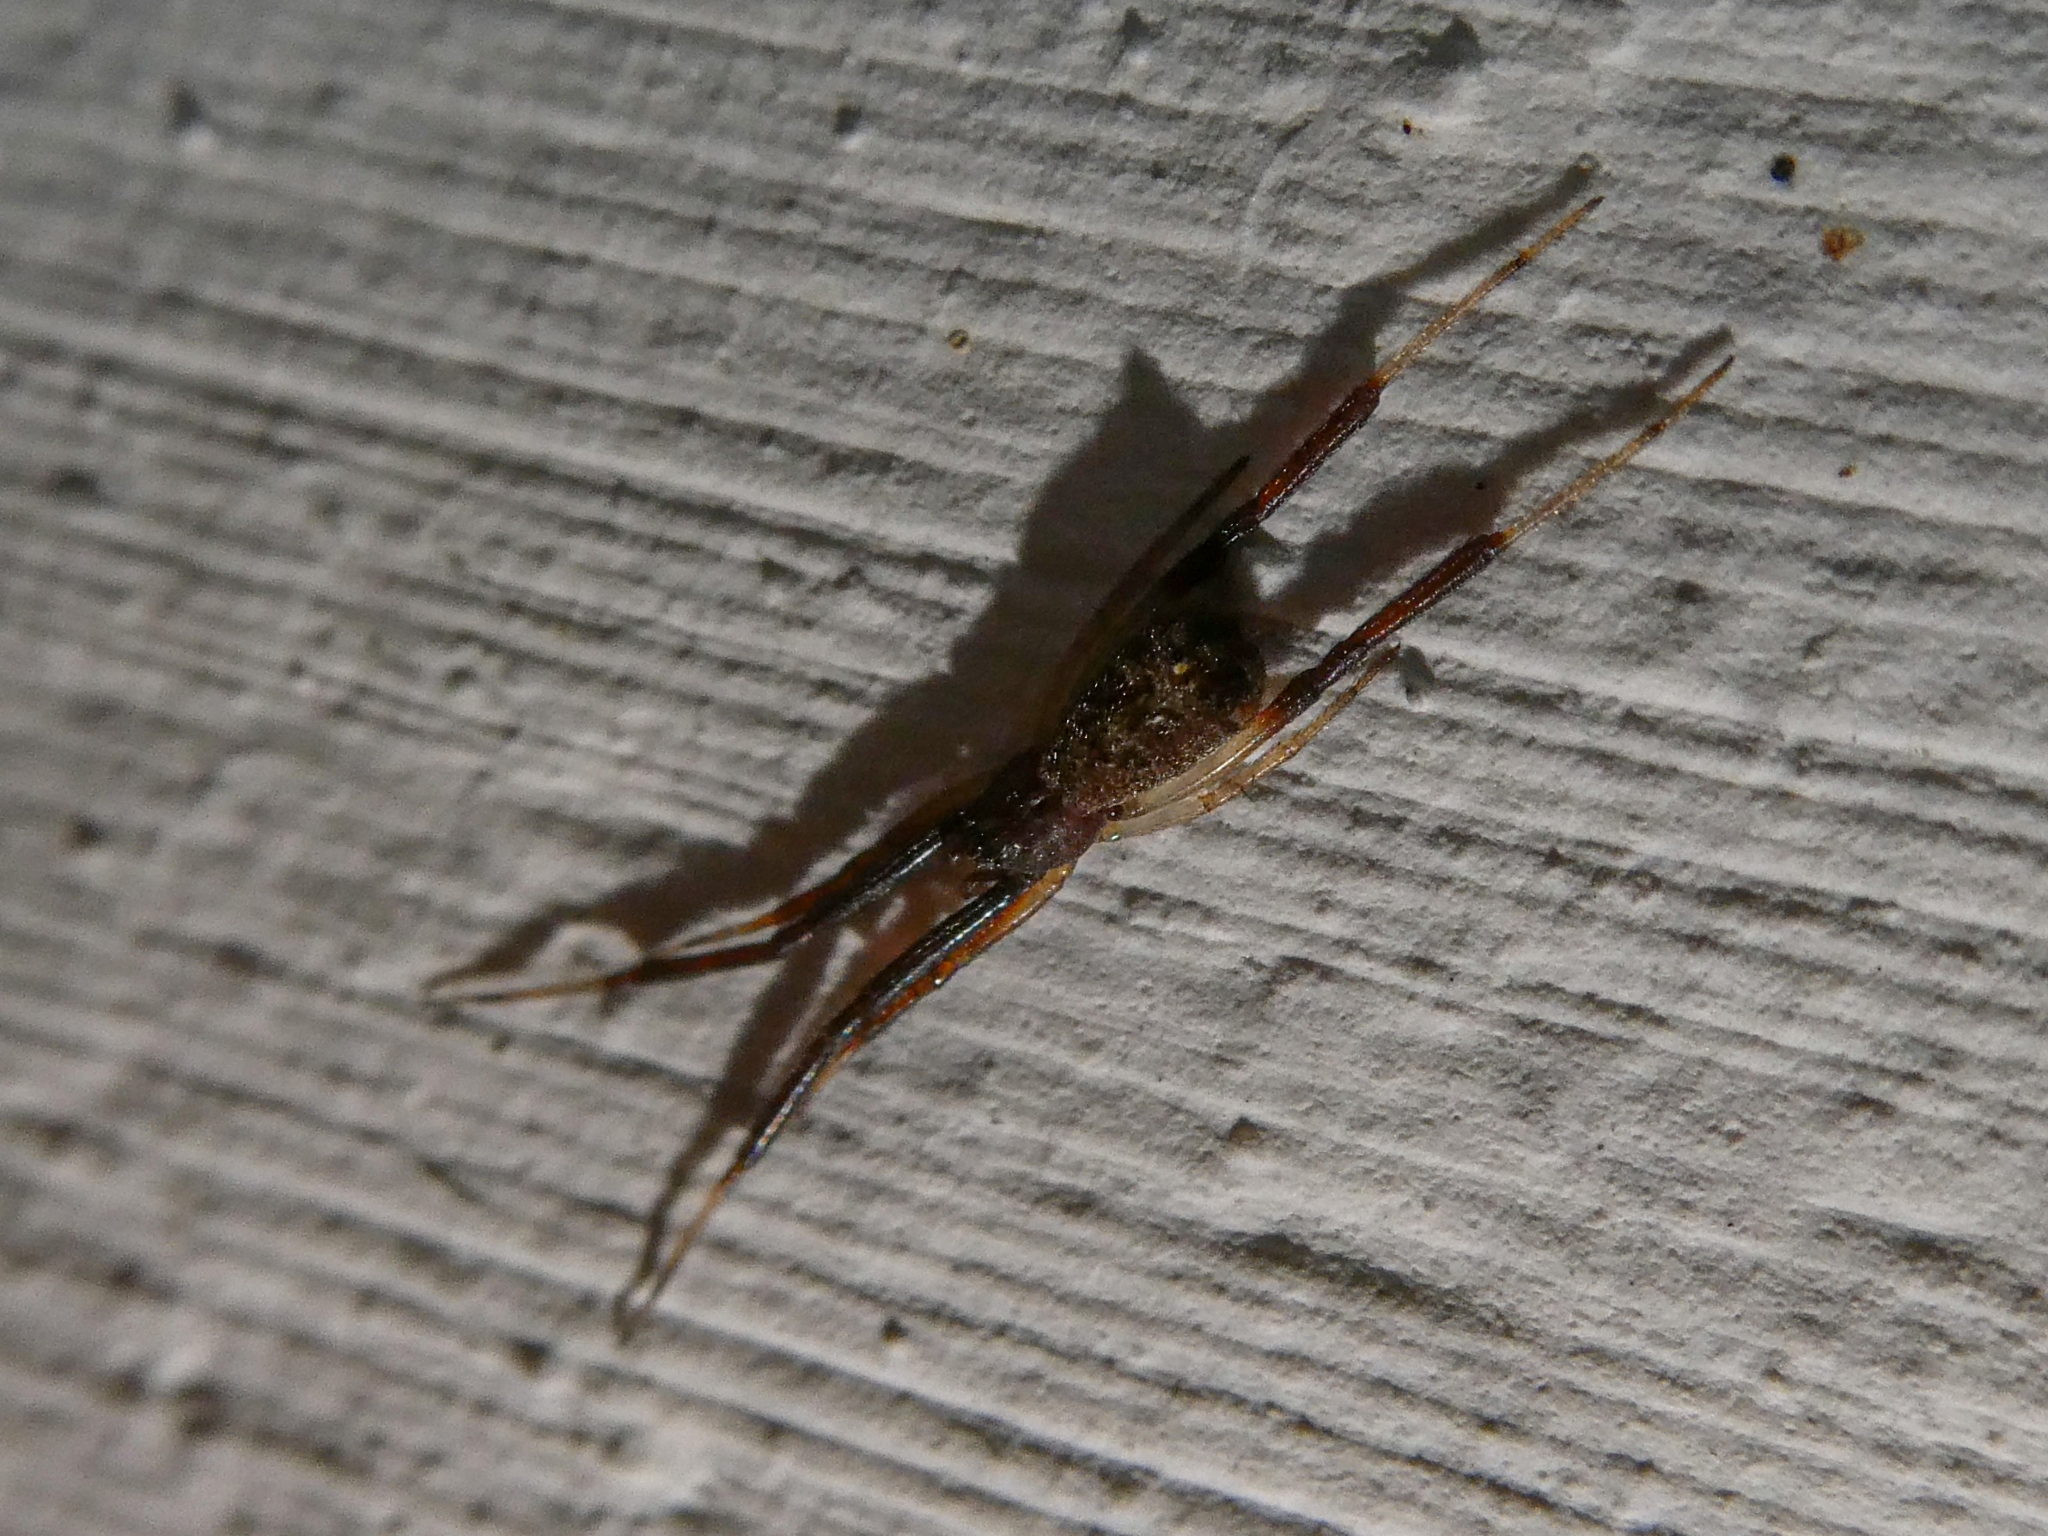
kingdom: Animalia
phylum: Arthropoda
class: Arachnida
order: Araneae
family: Theridiidae
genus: Episinus
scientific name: Episinus truncatus
